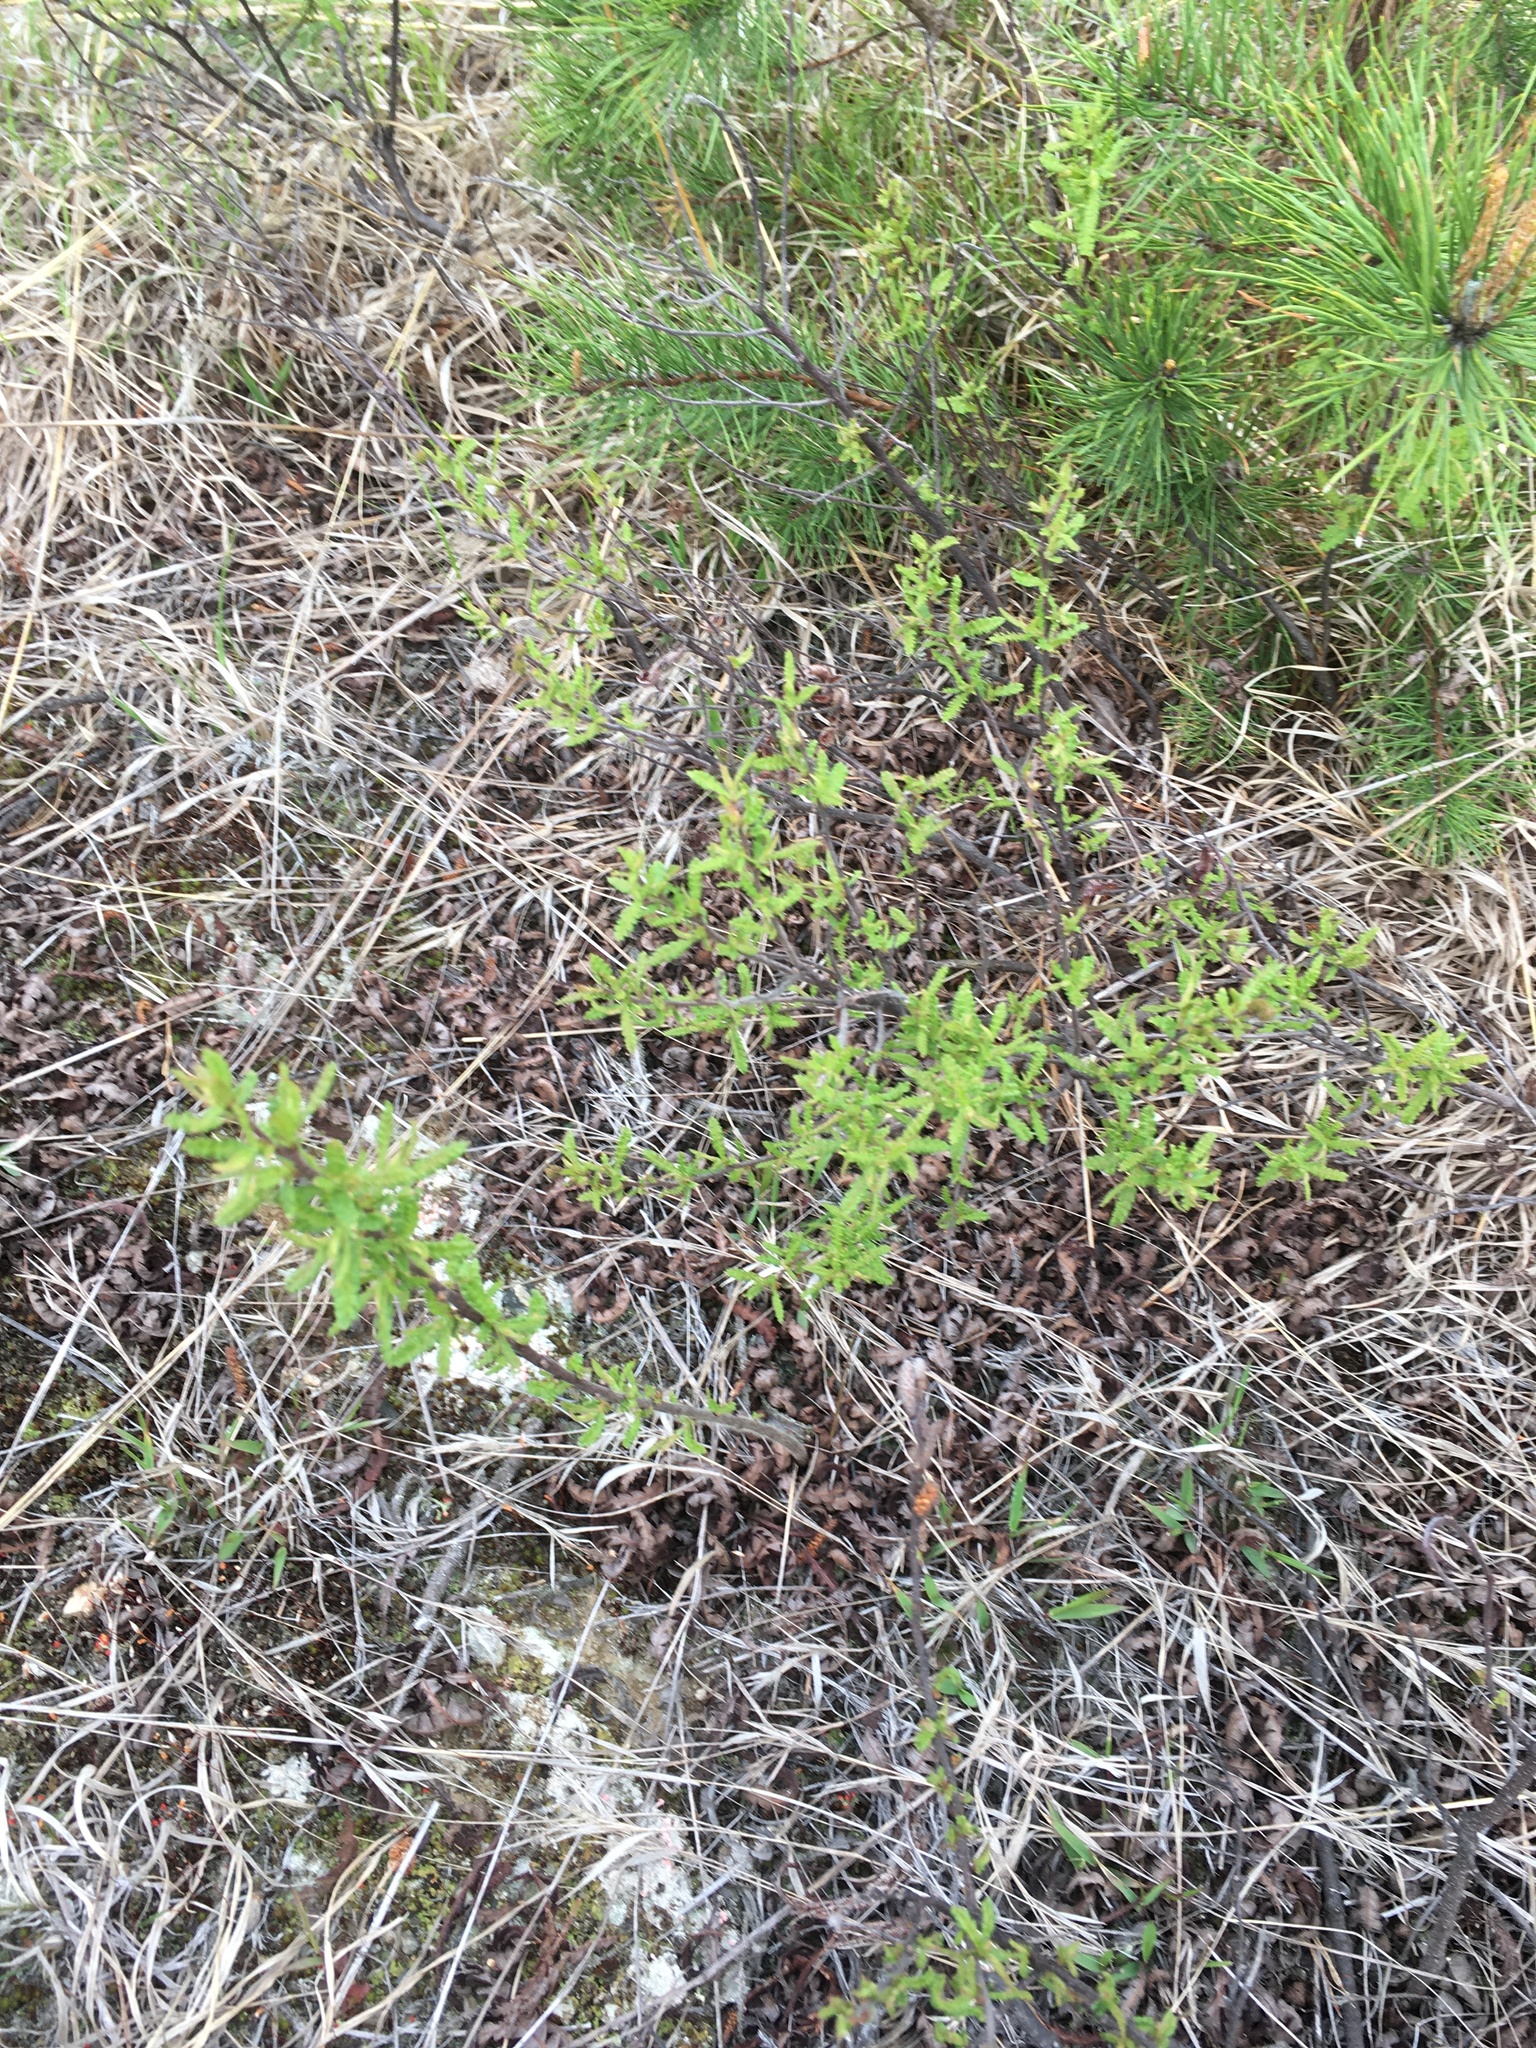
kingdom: Plantae
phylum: Tracheophyta
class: Magnoliopsida
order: Fagales
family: Myricaceae
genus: Comptonia
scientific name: Comptonia peregrina
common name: Sweet-fern
